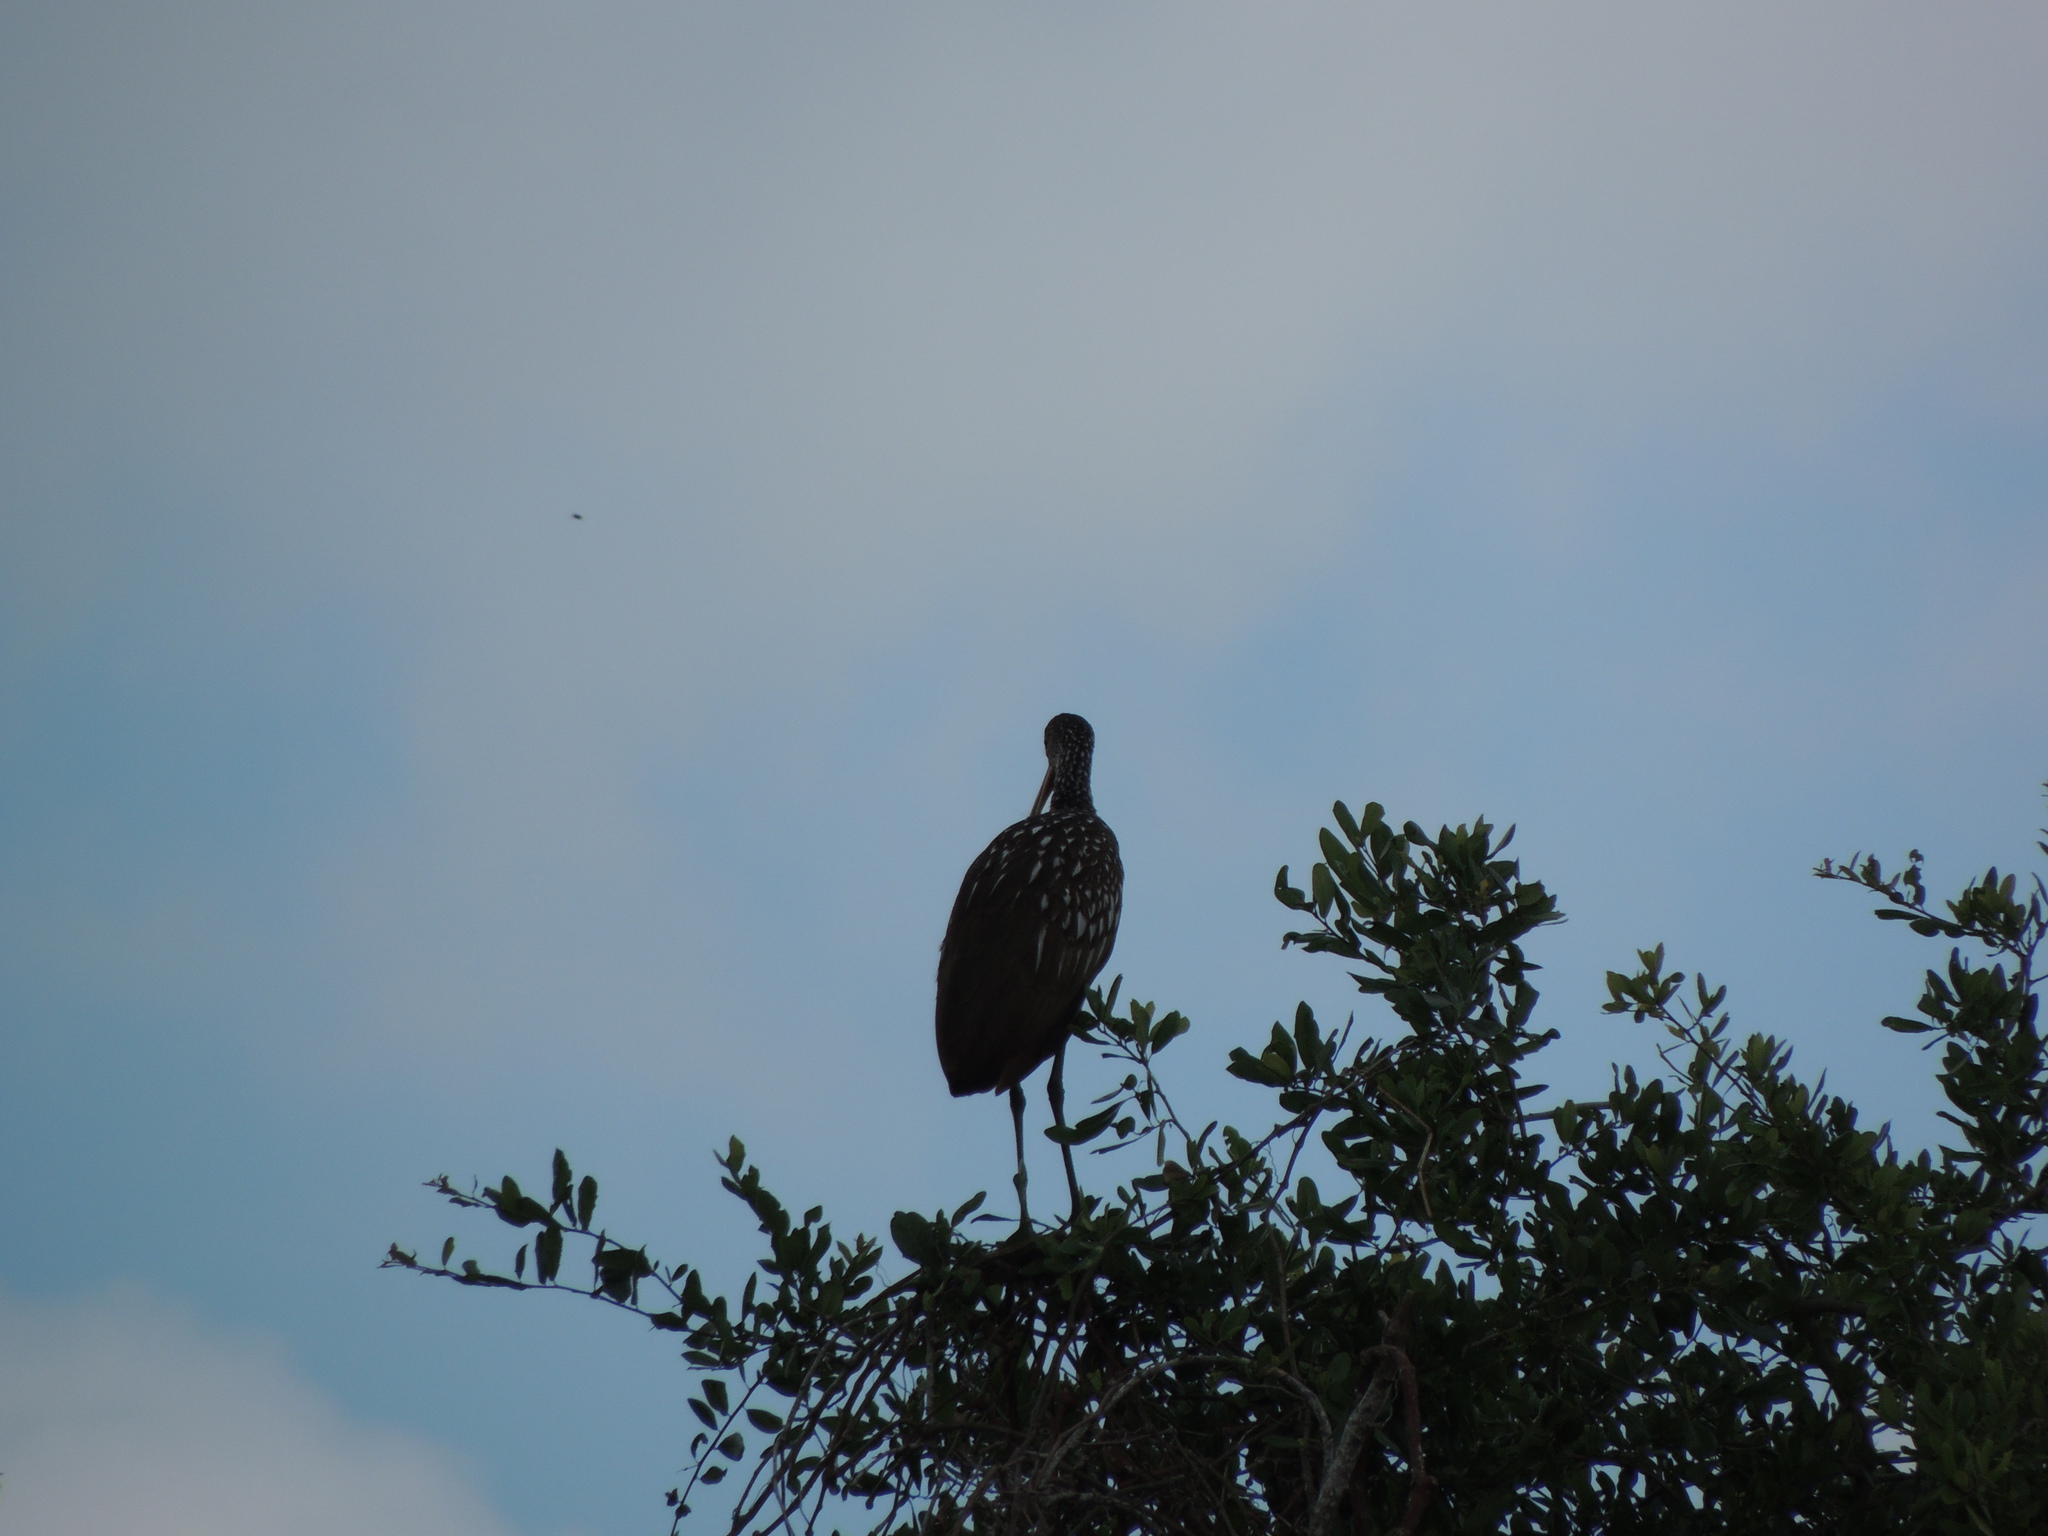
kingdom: Animalia
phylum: Chordata
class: Aves
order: Gruiformes
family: Aramidae
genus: Aramus
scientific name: Aramus guarauna
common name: Limpkin
